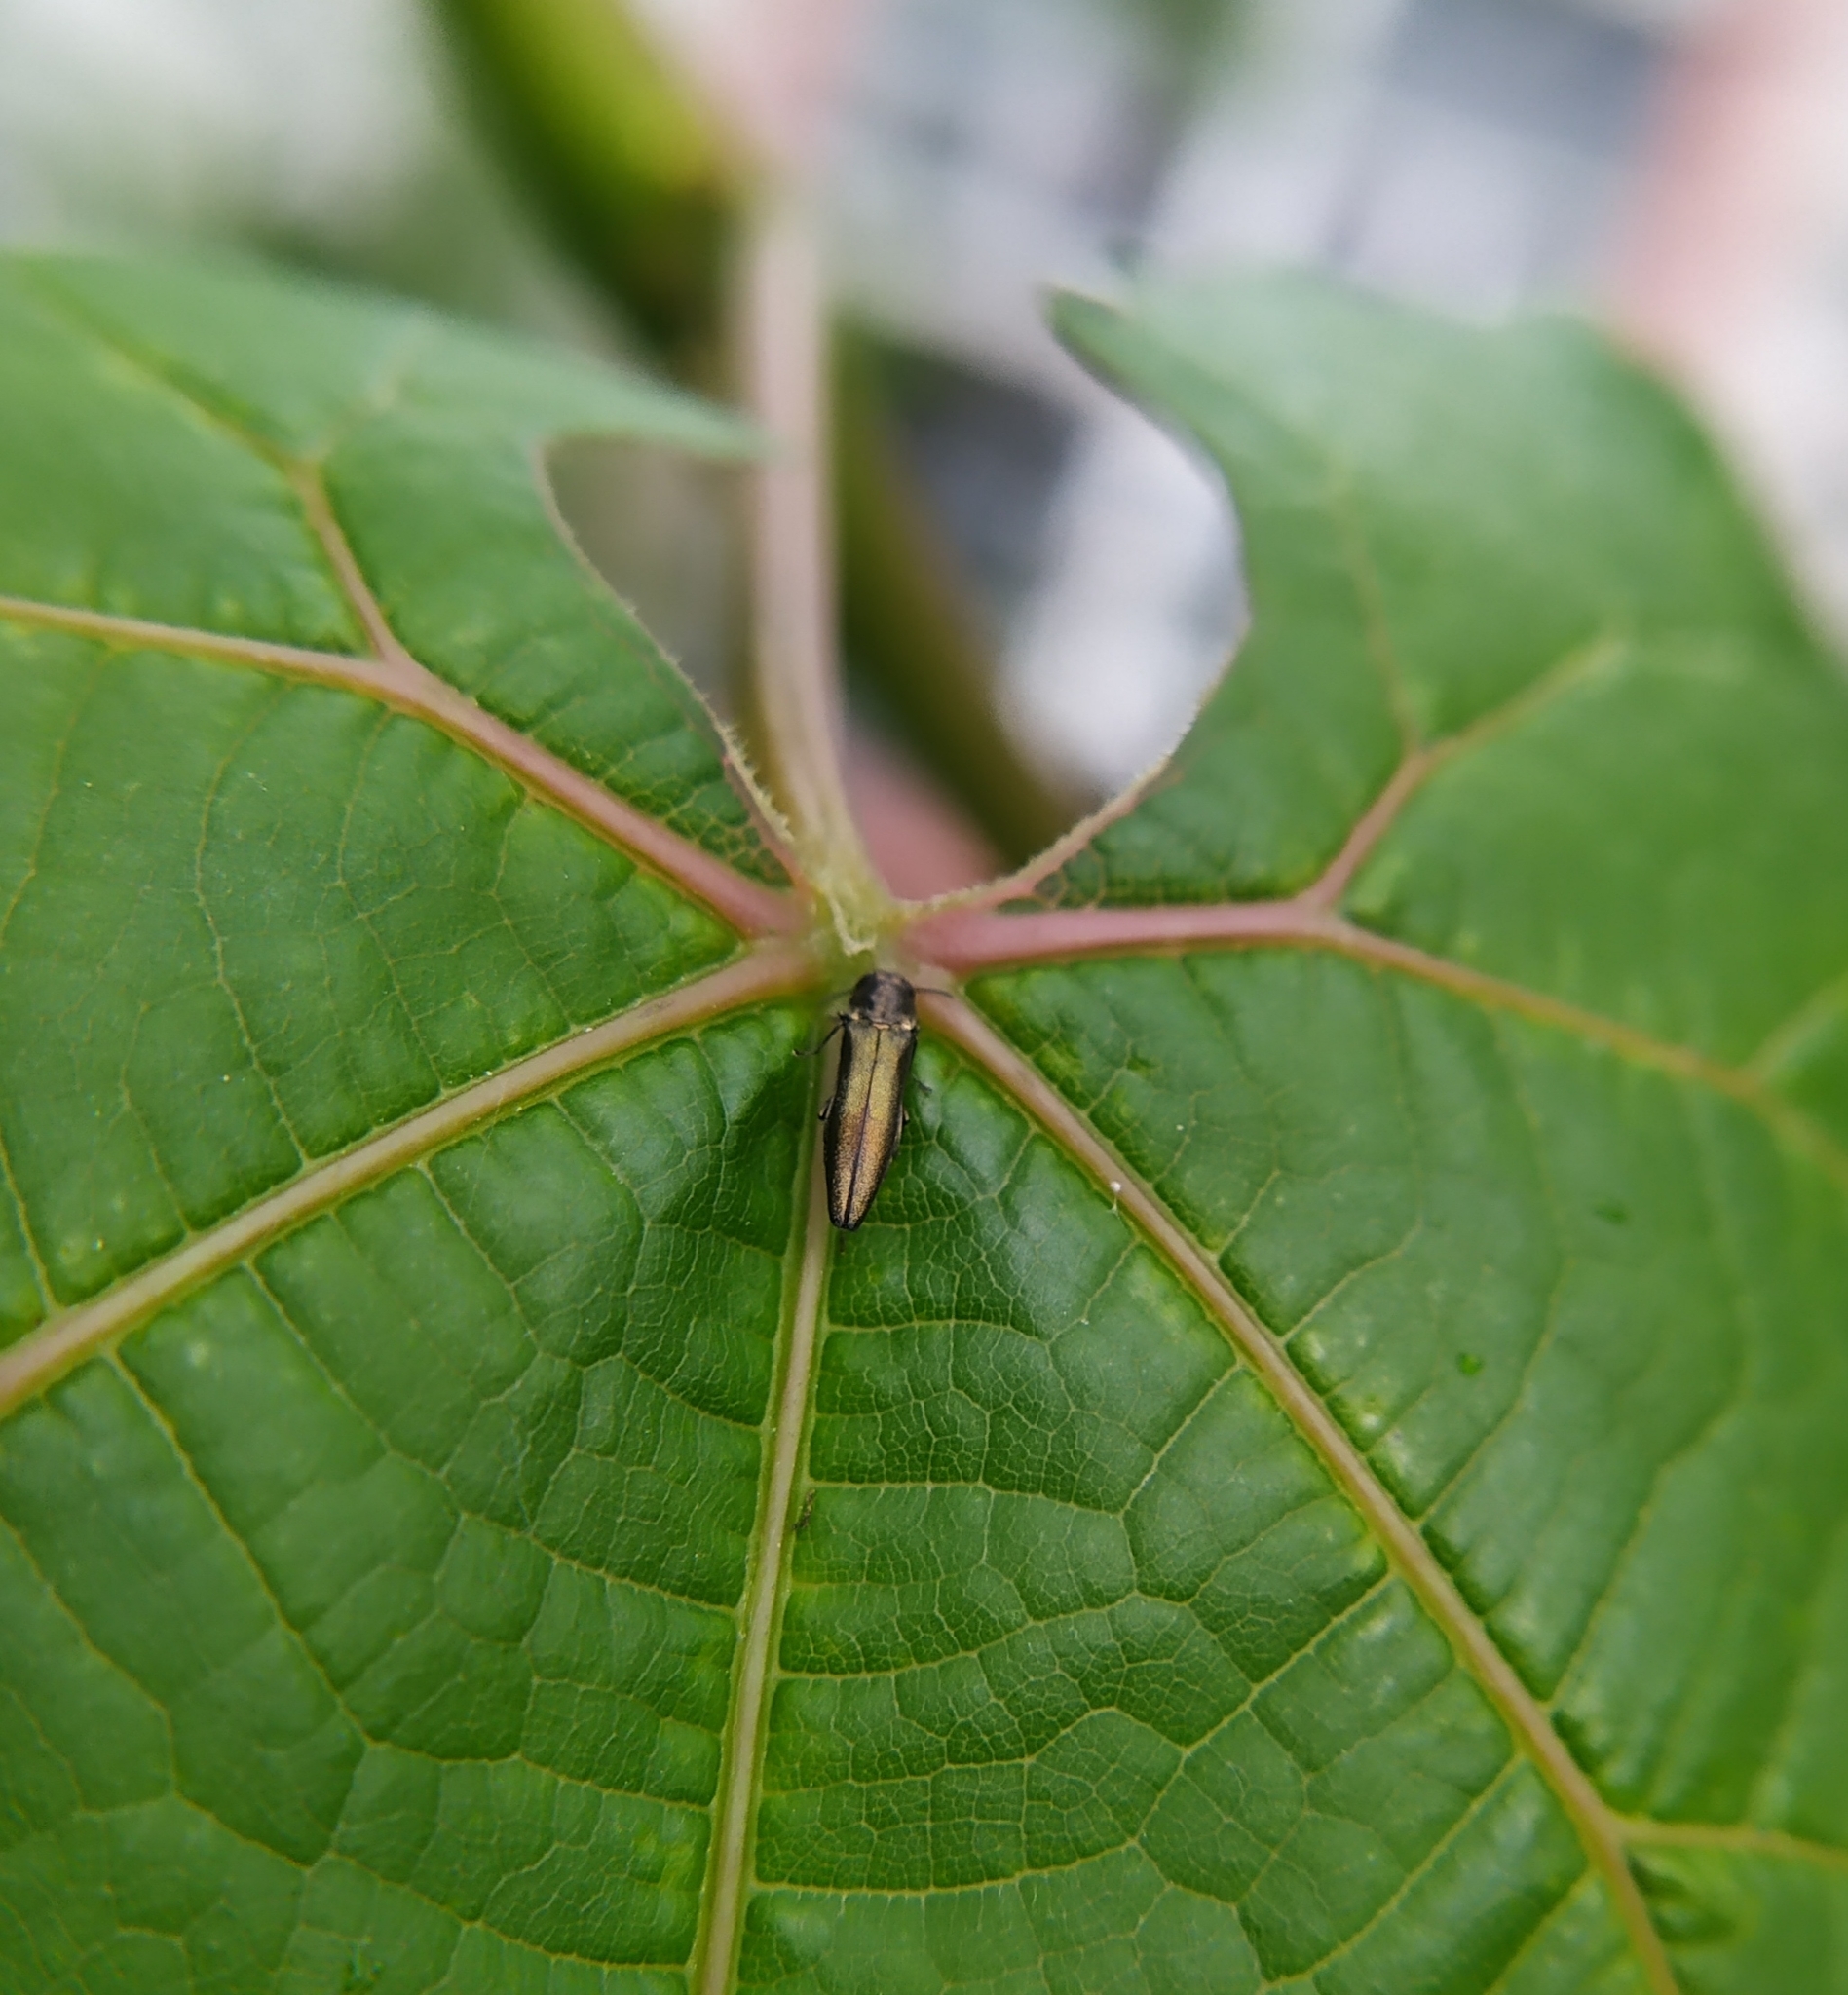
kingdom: Animalia
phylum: Arthropoda
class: Insecta
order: Coleoptera
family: Buprestidae
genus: Agrilus
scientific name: Agrilus derasofasciatus
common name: Metallic wood-boring beetle
